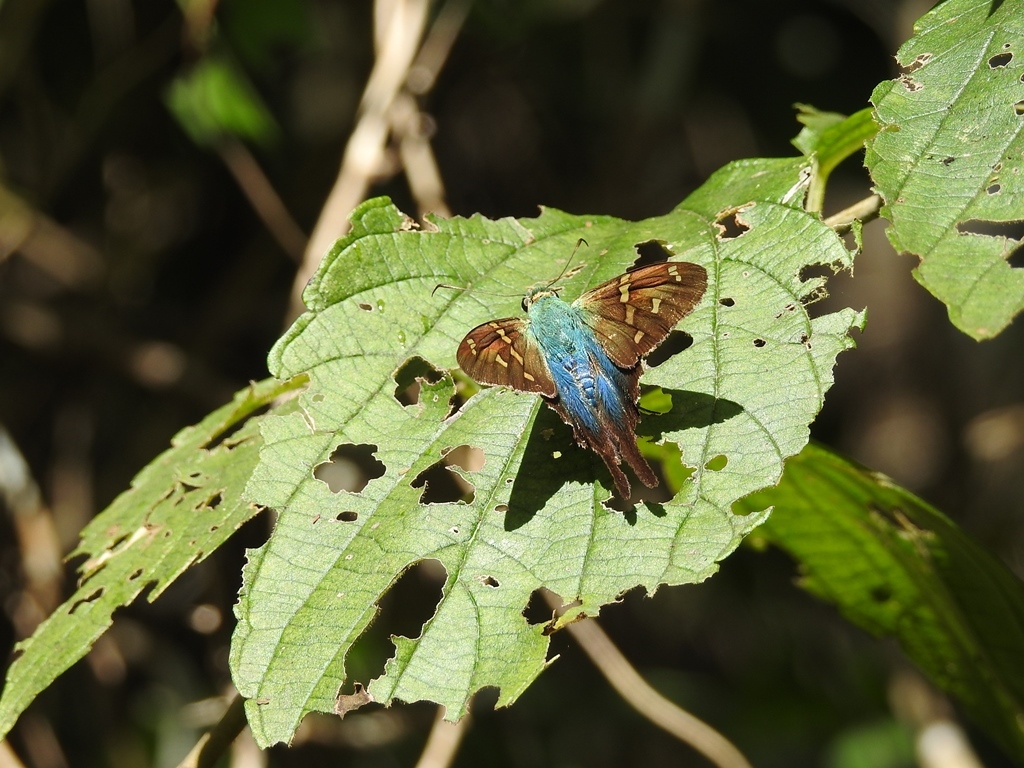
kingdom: Animalia
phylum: Arthropoda
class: Insecta
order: Lepidoptera
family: Hesperiidae
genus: Urbanus
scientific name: Urbanus esmeraldus
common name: Esmeralda longtail
